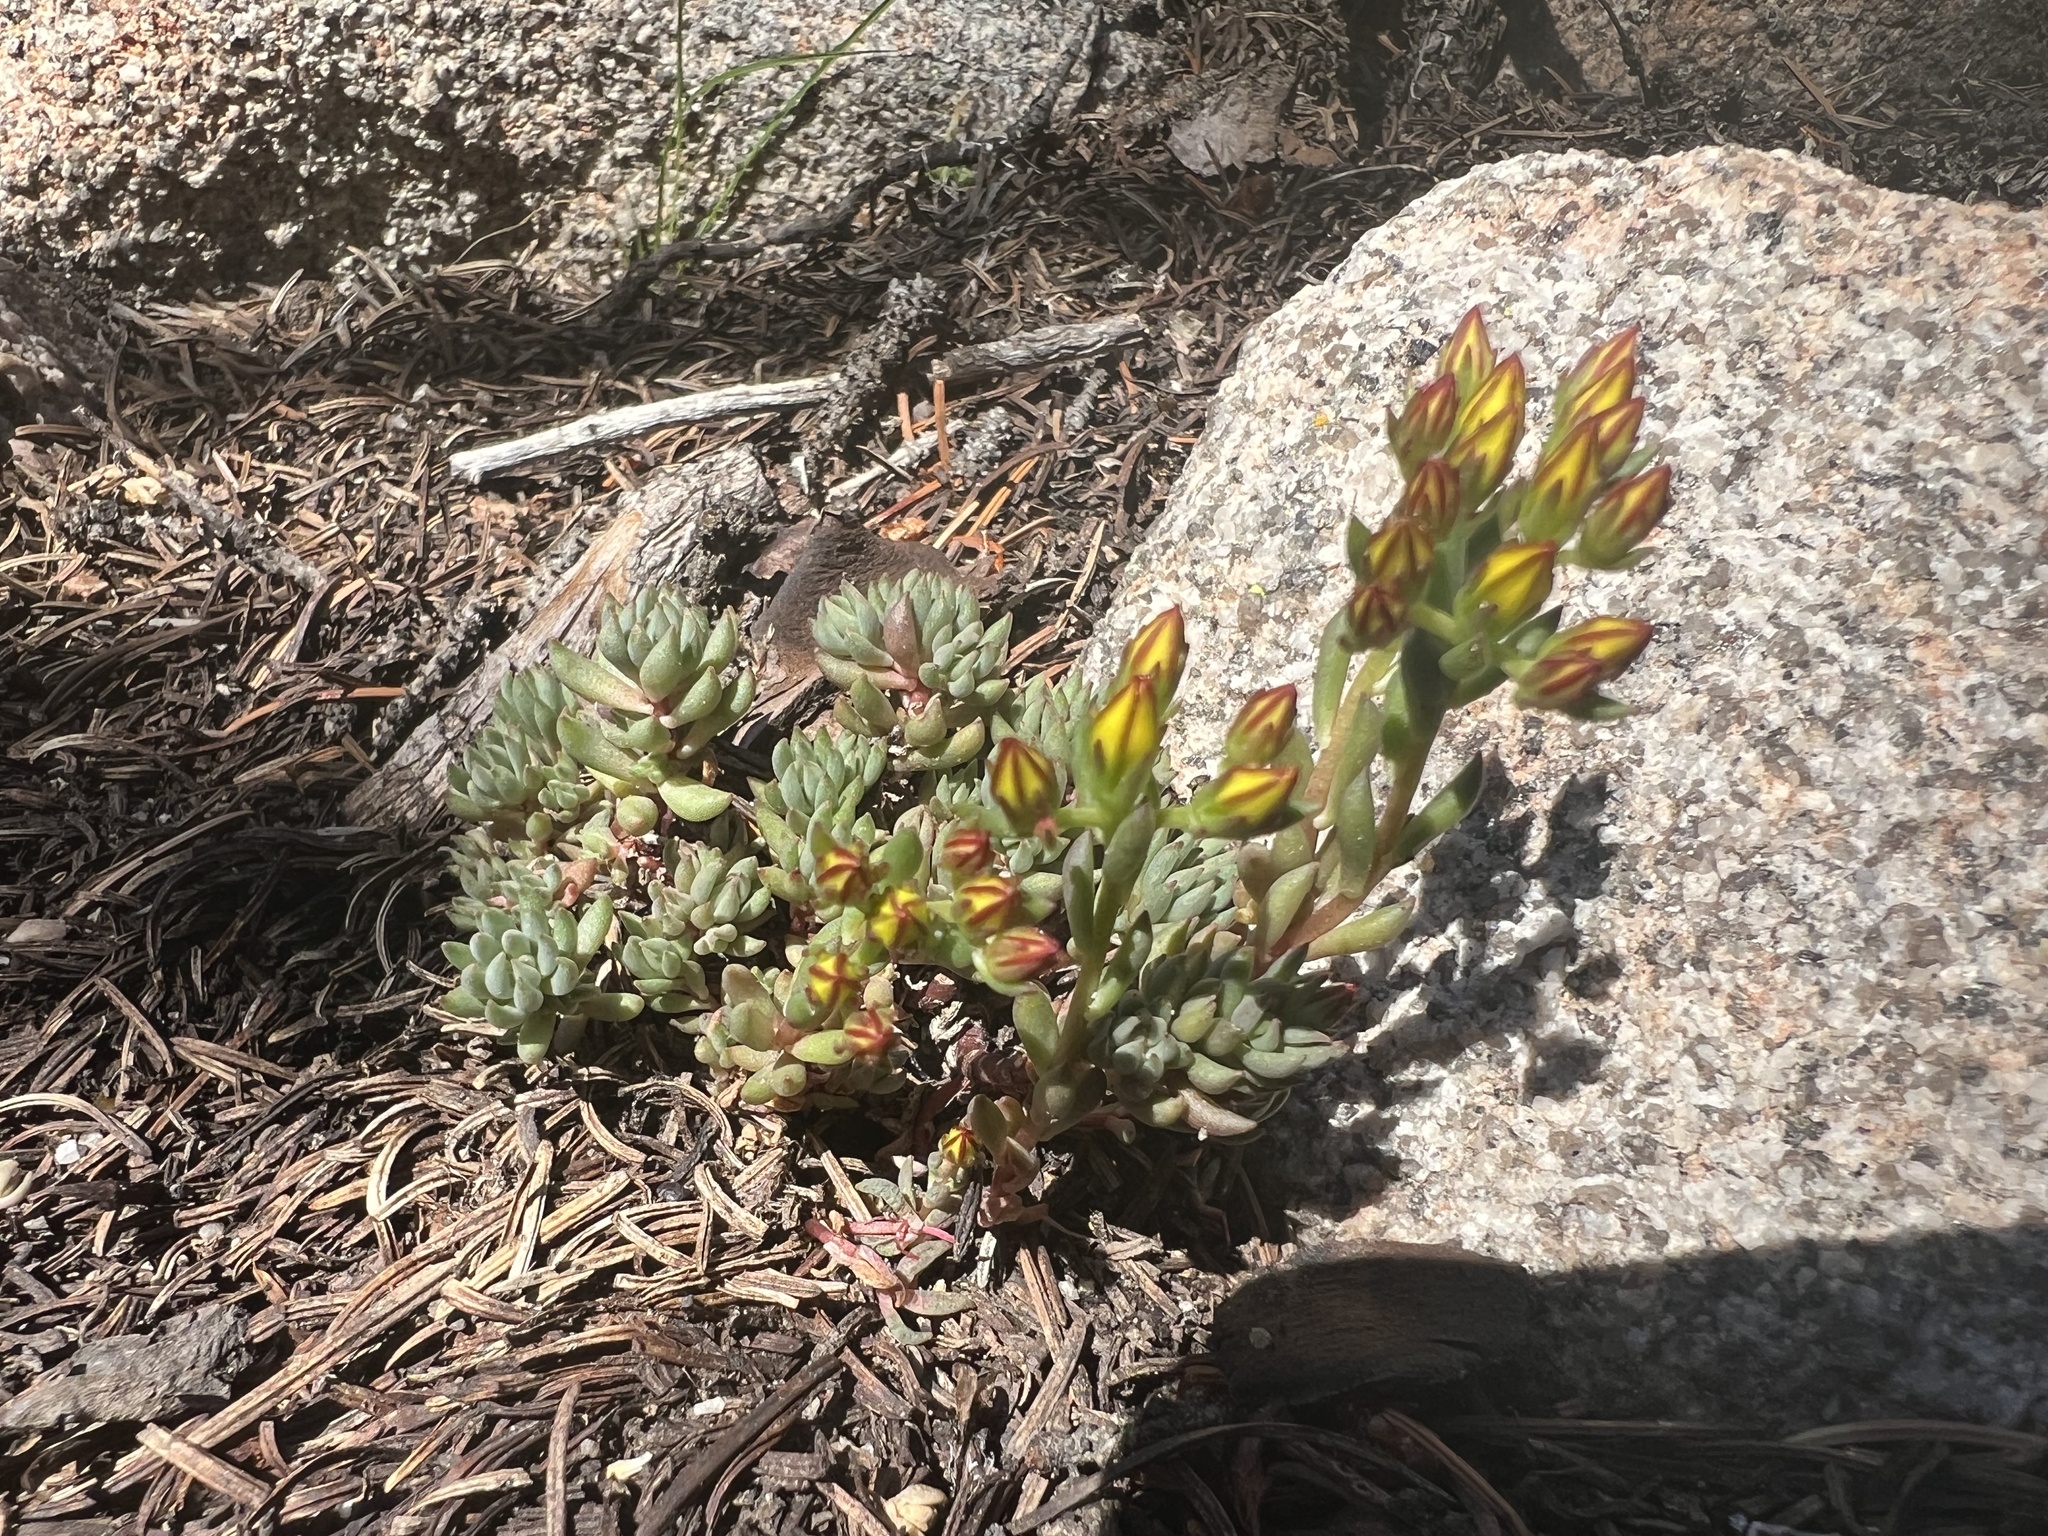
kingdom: Plantae
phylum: Tracheophyta
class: Magnoliopsida
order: Saxifragales
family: Crassulaceae
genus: Sedum
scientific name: Sedum lanceolatum
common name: Common stonecrop
